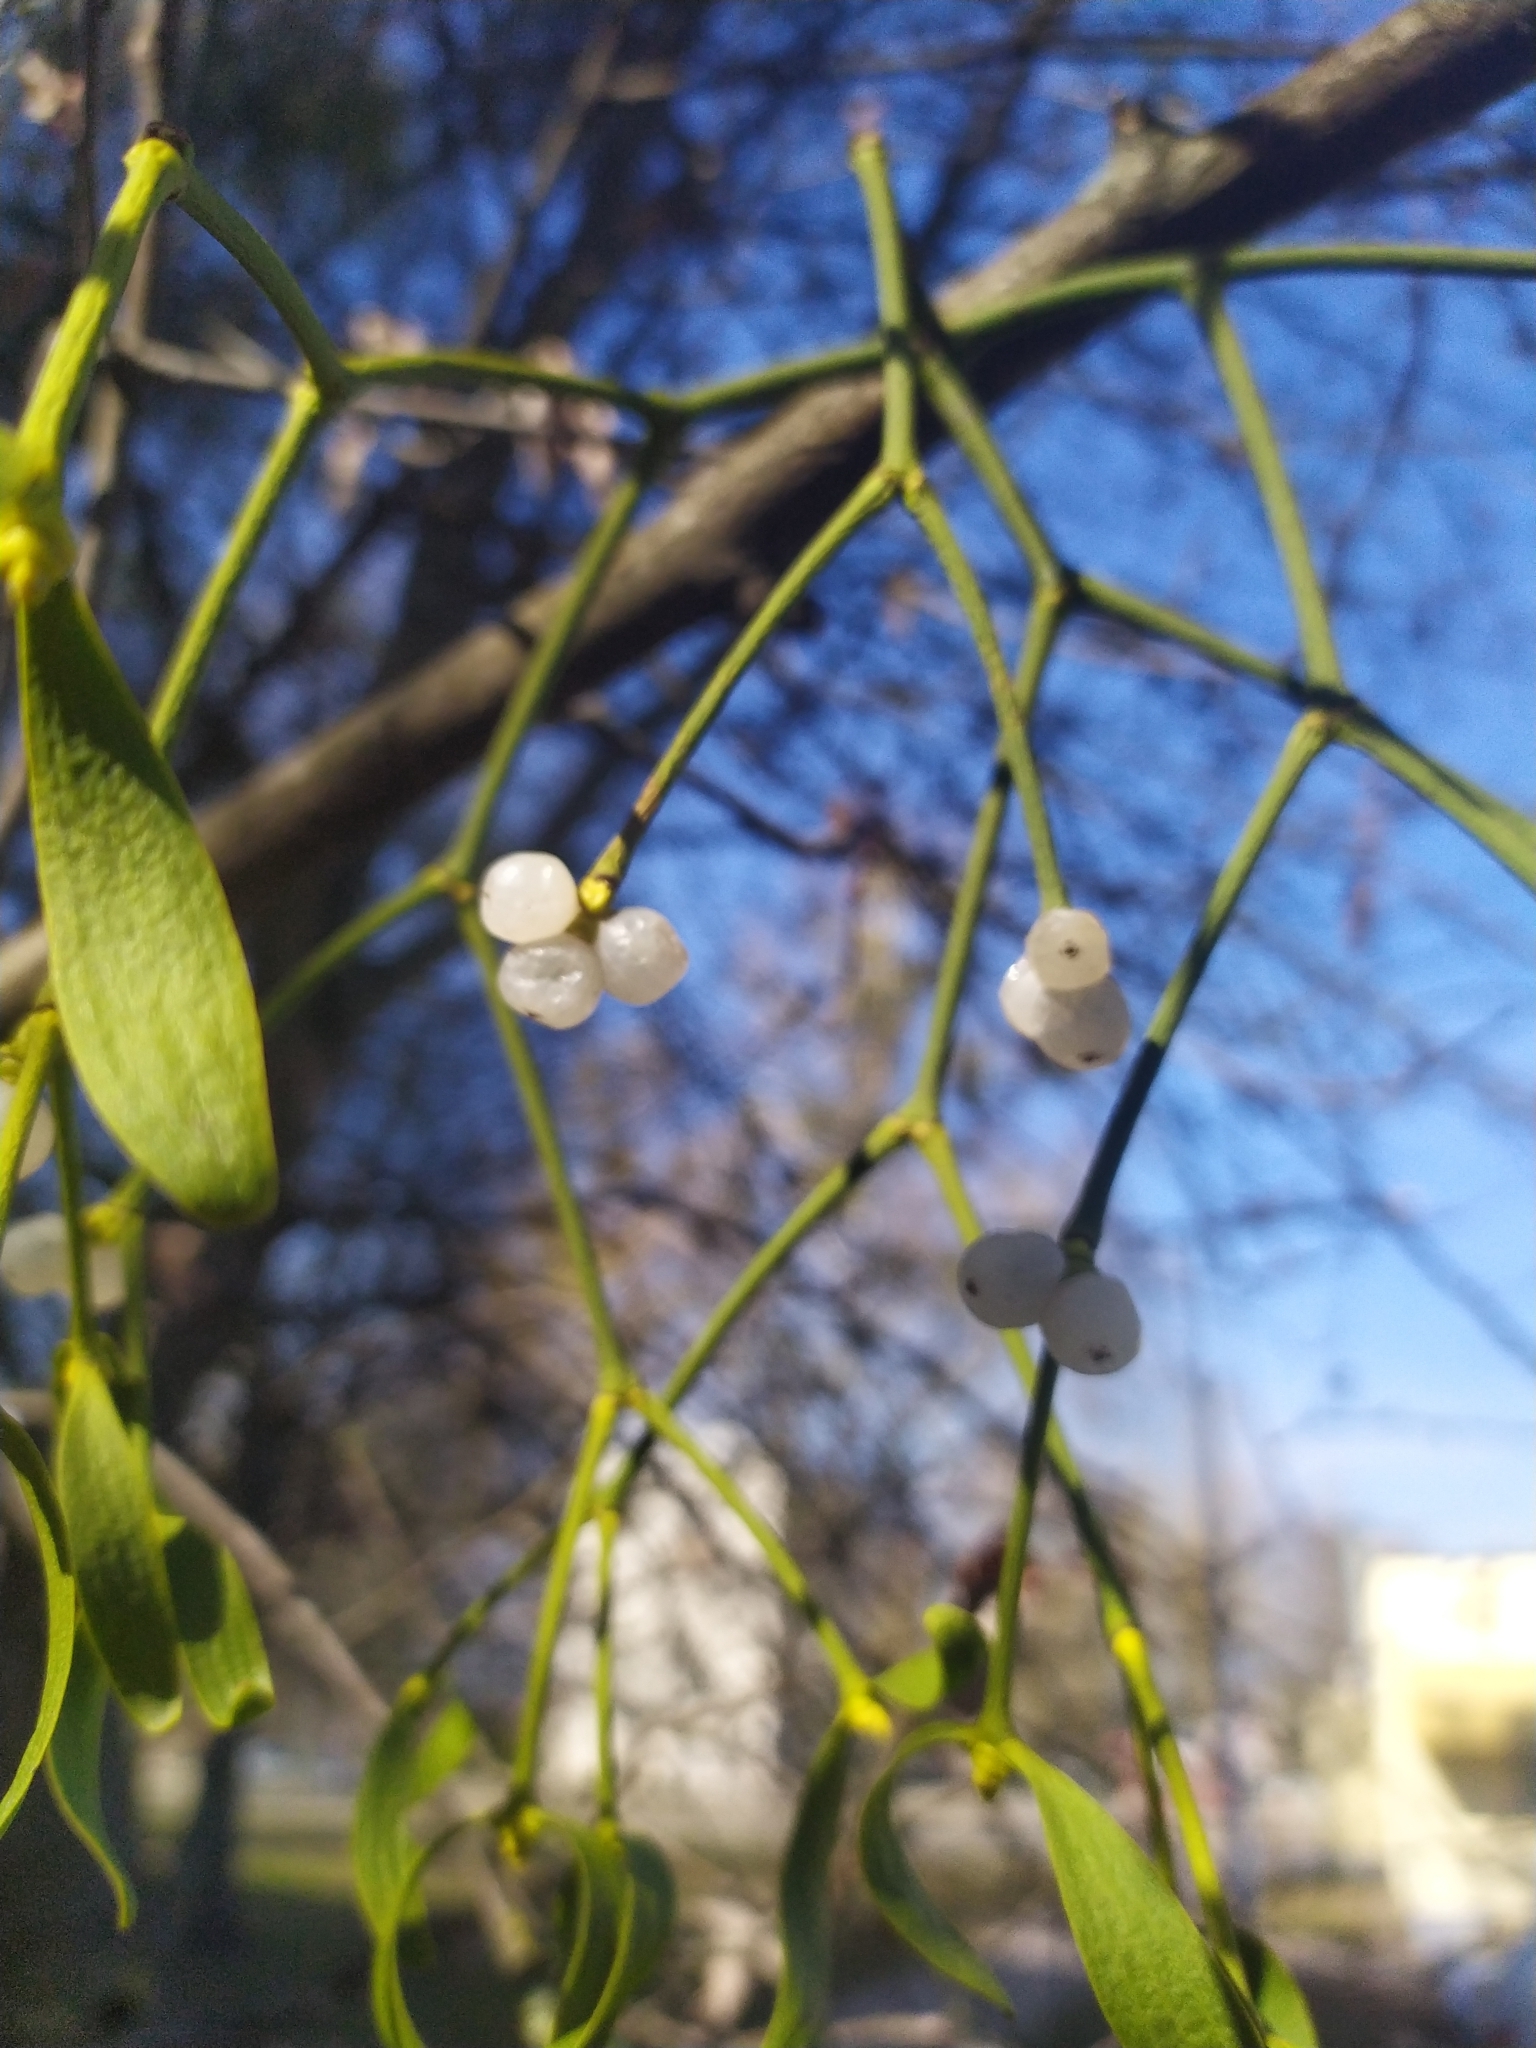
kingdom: Plantae
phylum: Tracheophyta
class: Magnoliopsida
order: Santalales
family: Viscaceae
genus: Viscum
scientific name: Viscum album
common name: Mistletoe
